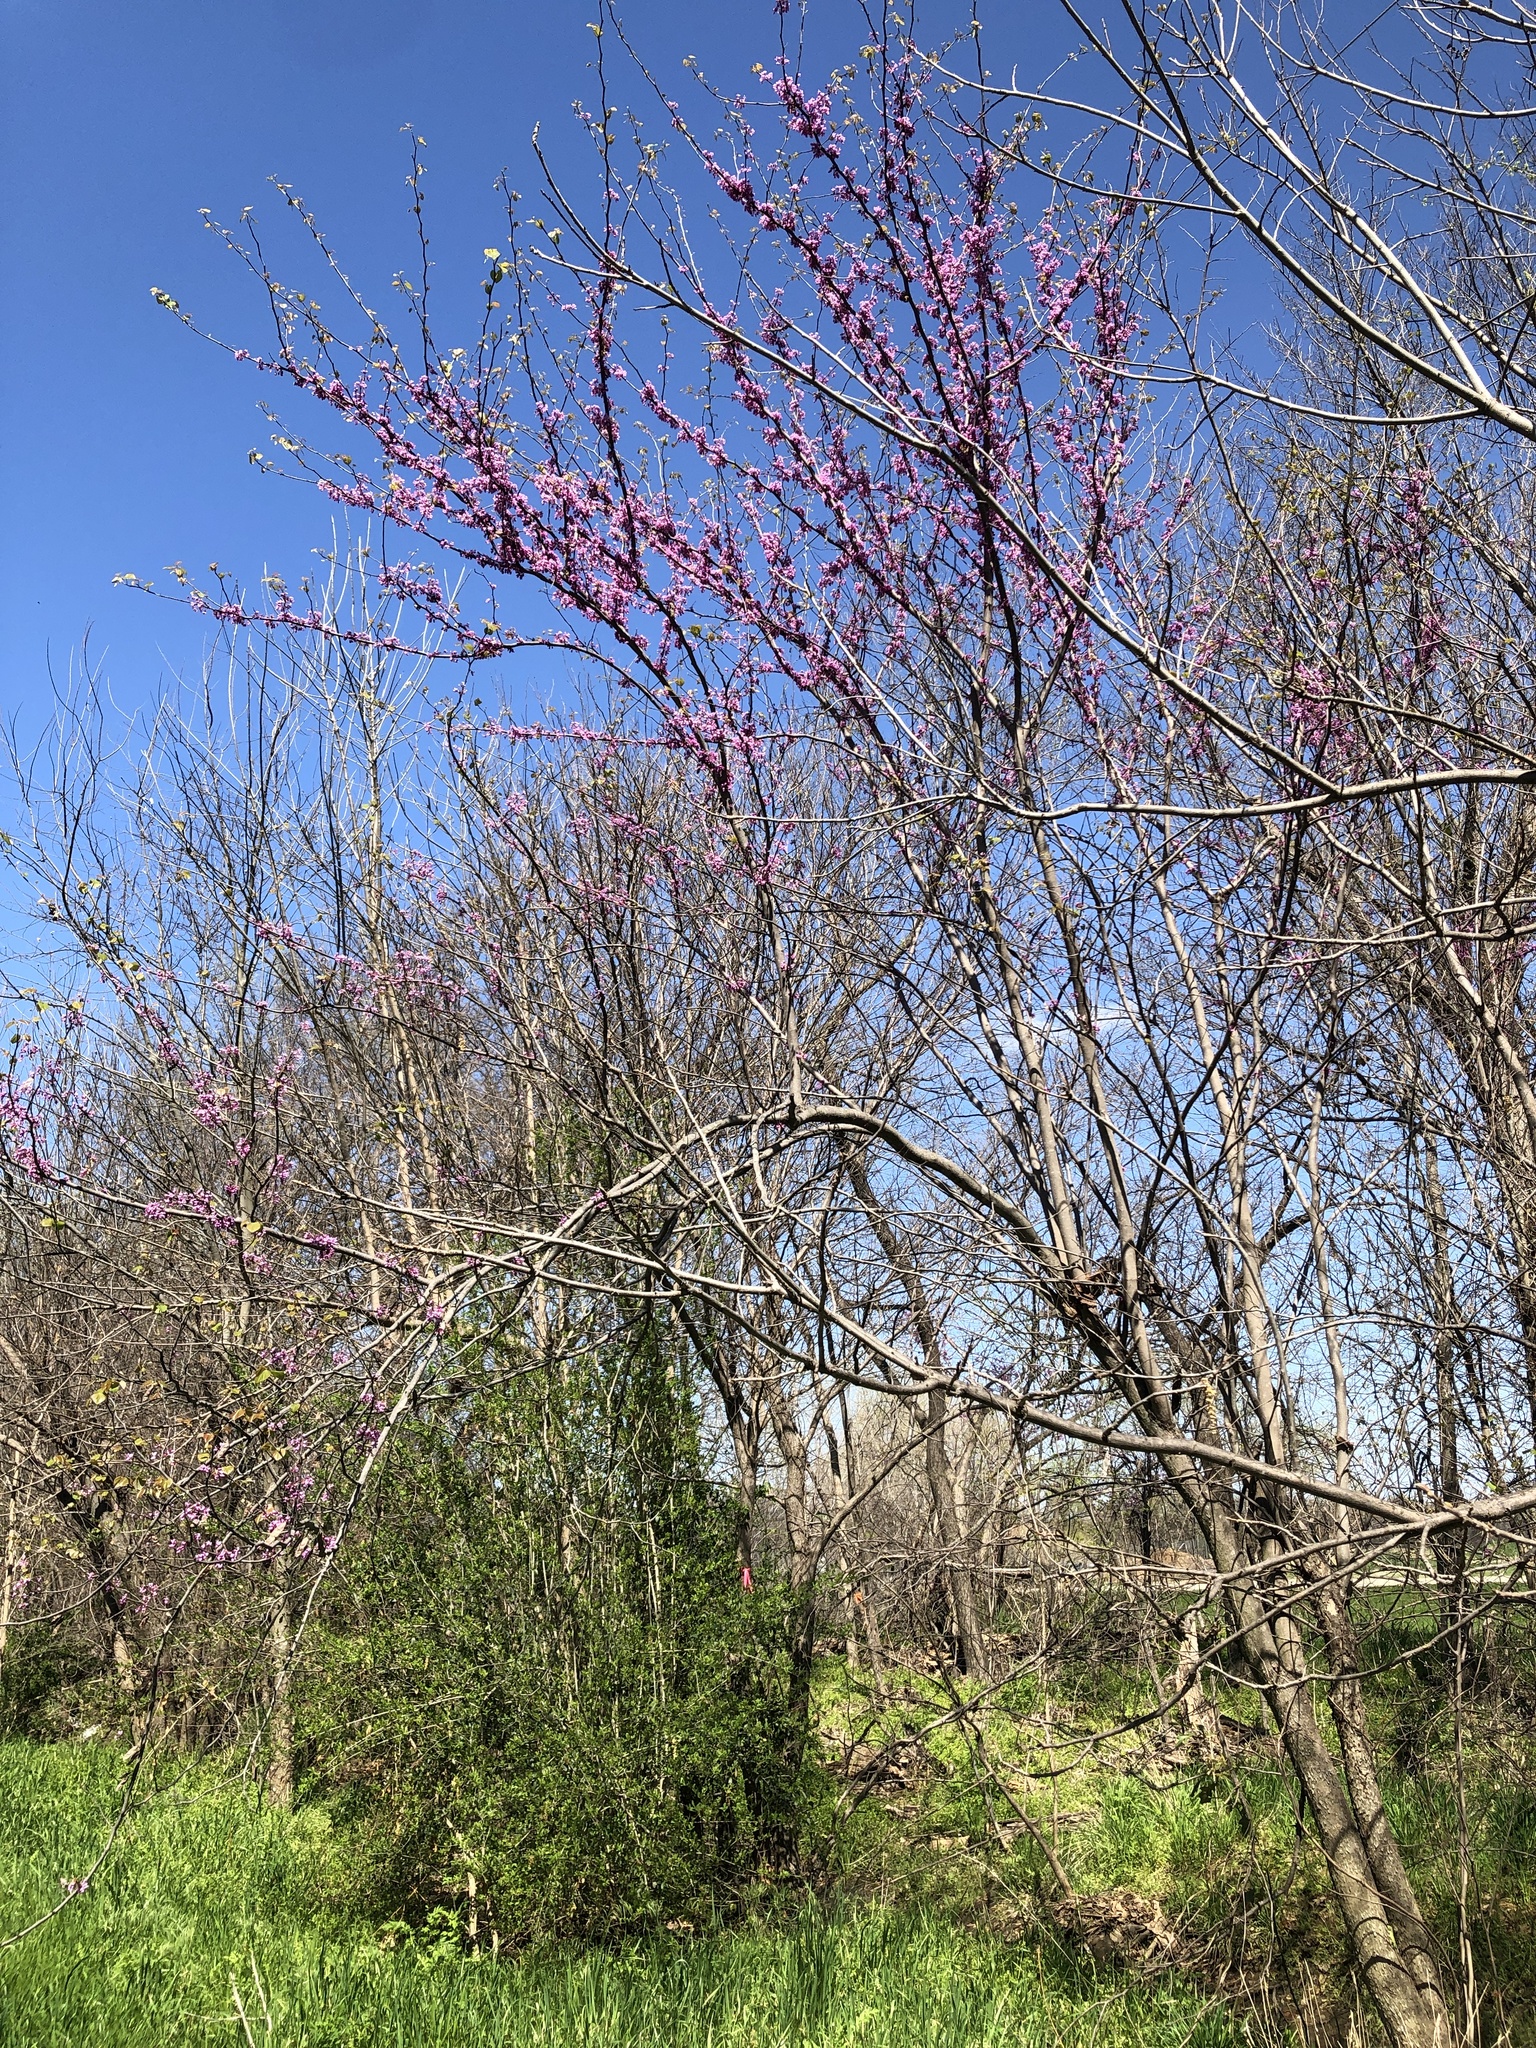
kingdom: Plantae
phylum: Tracheophyta
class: Magnoliopsida
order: Fabales
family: Fabaceae
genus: Cercis
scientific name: Cercis canadensis
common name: Eastern redbud
